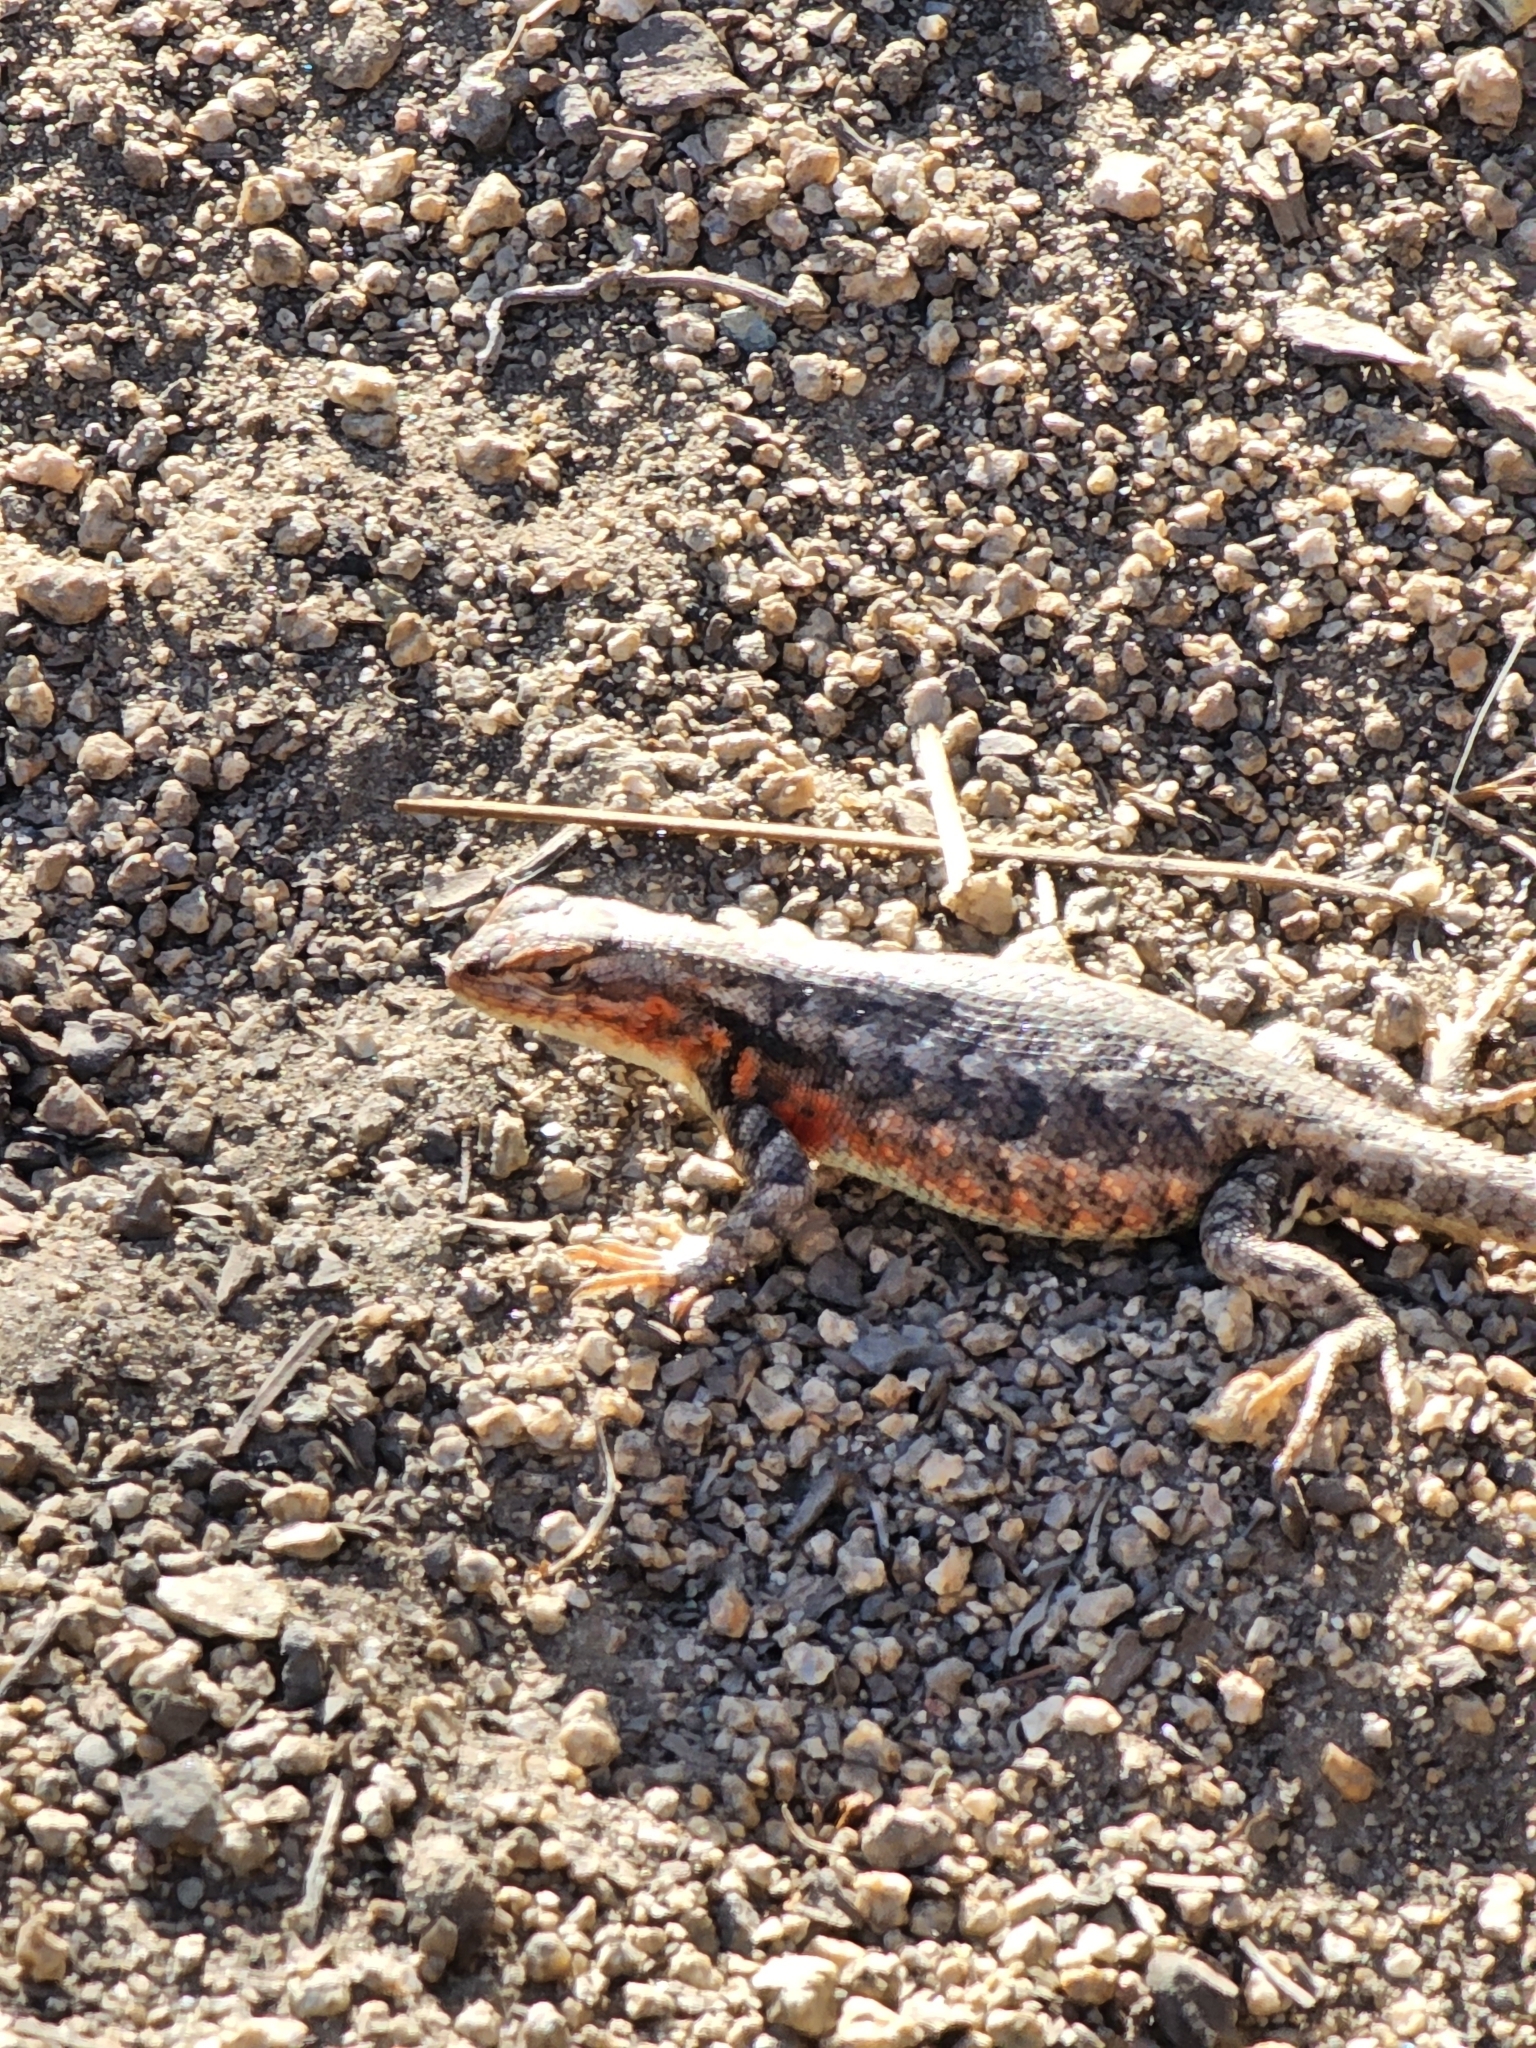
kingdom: Animalia
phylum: Chordata
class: Squamata
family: Phrynosomatidae
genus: Sceloporus
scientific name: Sceloporus graciosus
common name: Sagebrush lizard
